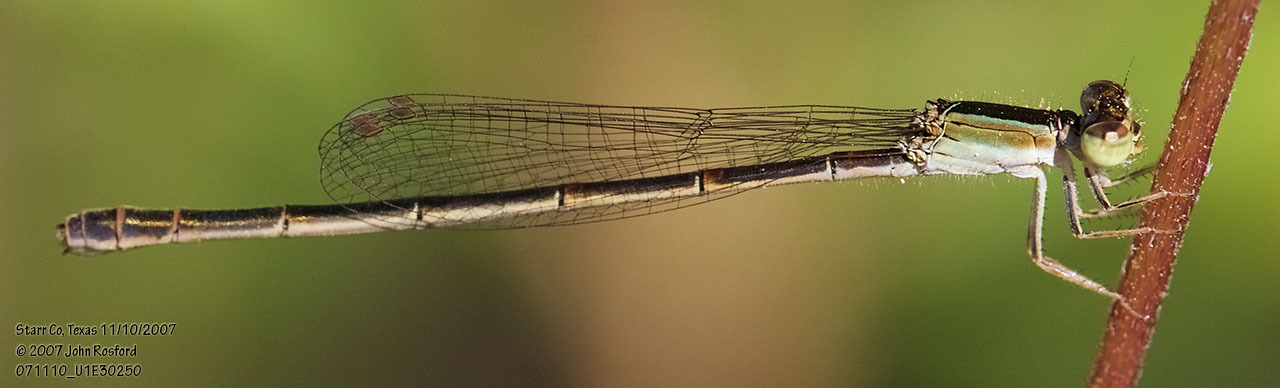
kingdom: Animalia
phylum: Arthropoda
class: Insecta
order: Odonata
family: Coenagrionidae
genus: Ischnura
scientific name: Ischnura hastata
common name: Citrine forktail
